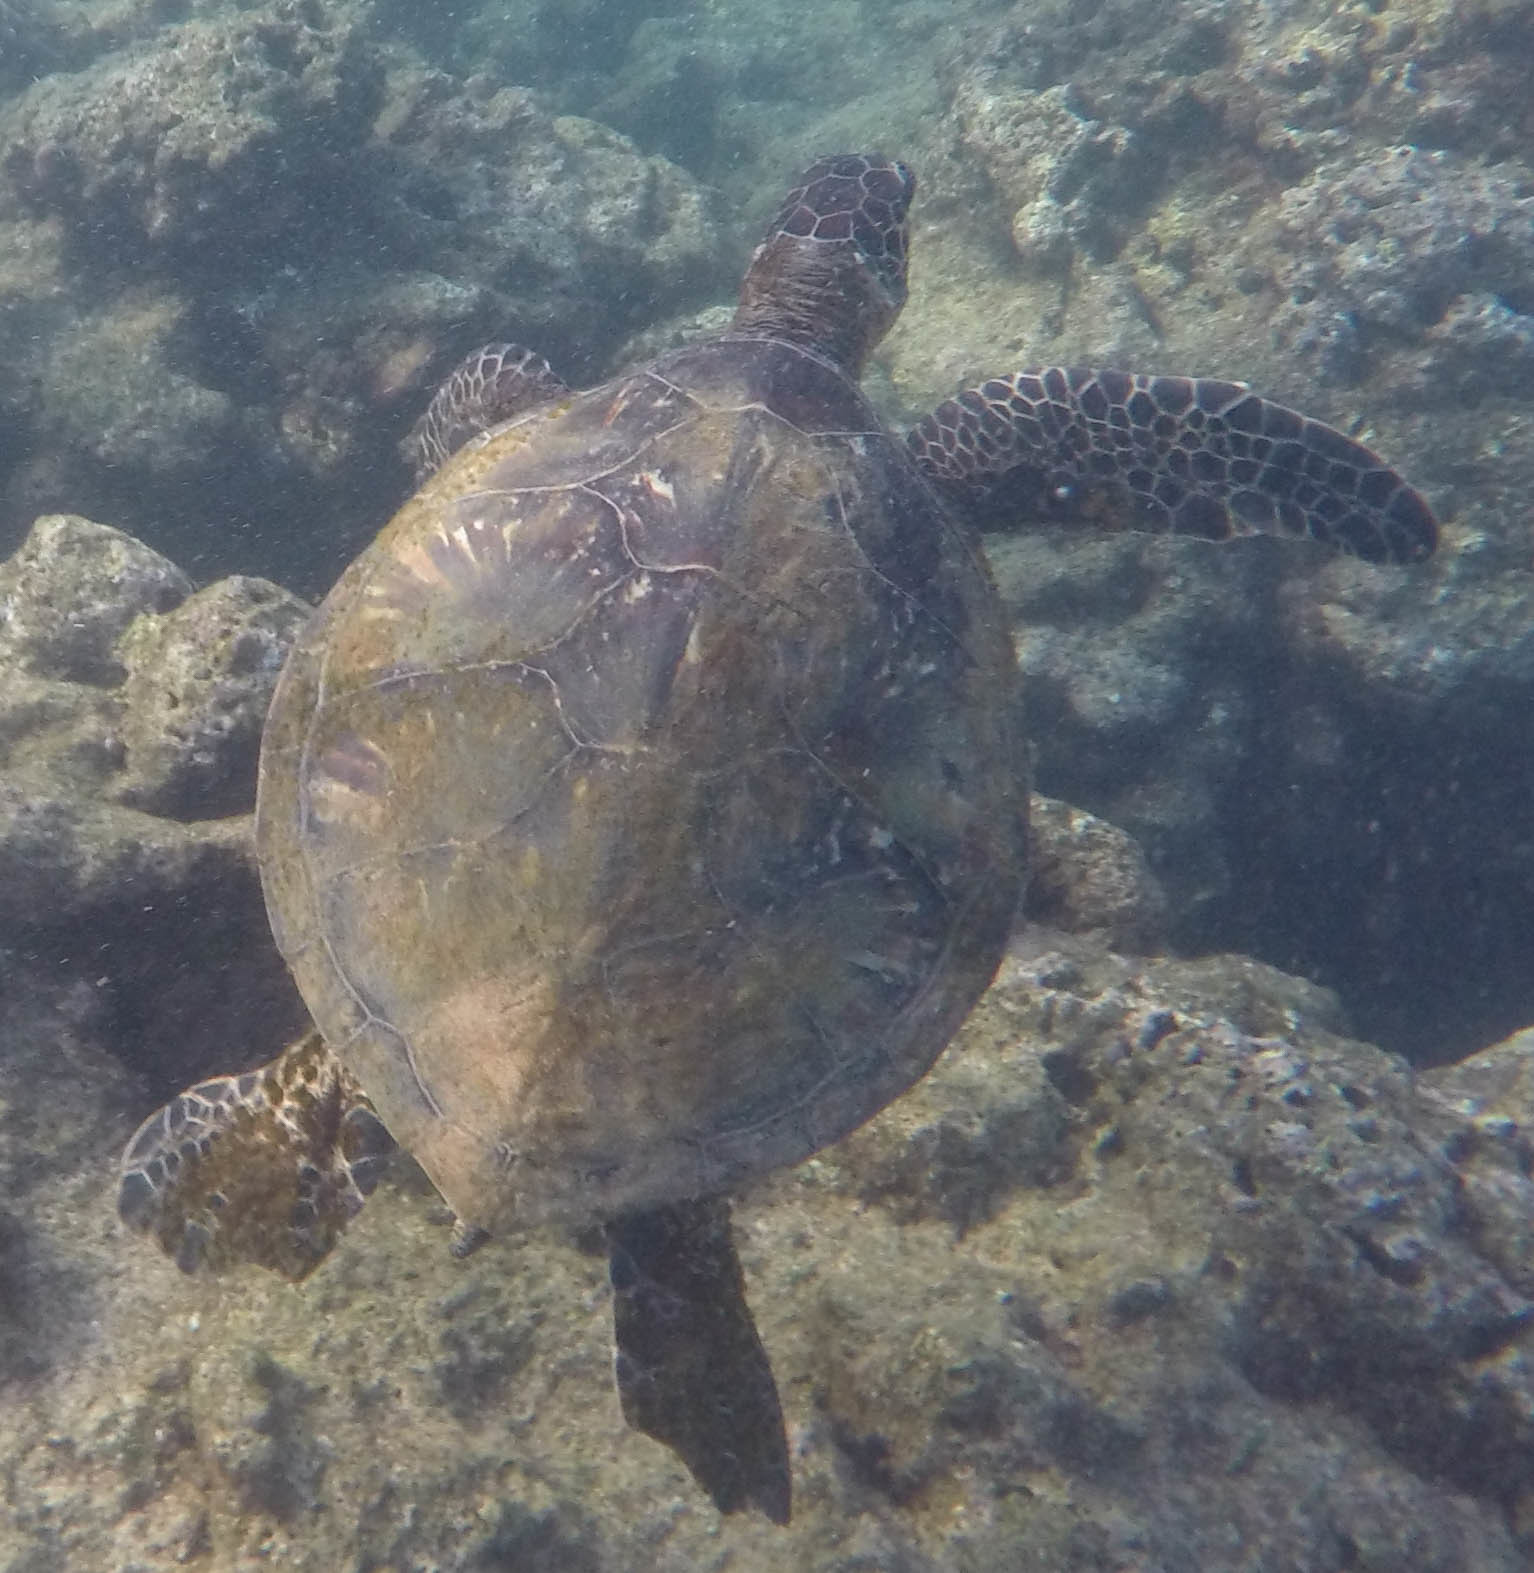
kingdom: Animalia
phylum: Chordata
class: Testudines
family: Cheloniidae
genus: Chelonia
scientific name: Chelonia mydas
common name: Green turtle
